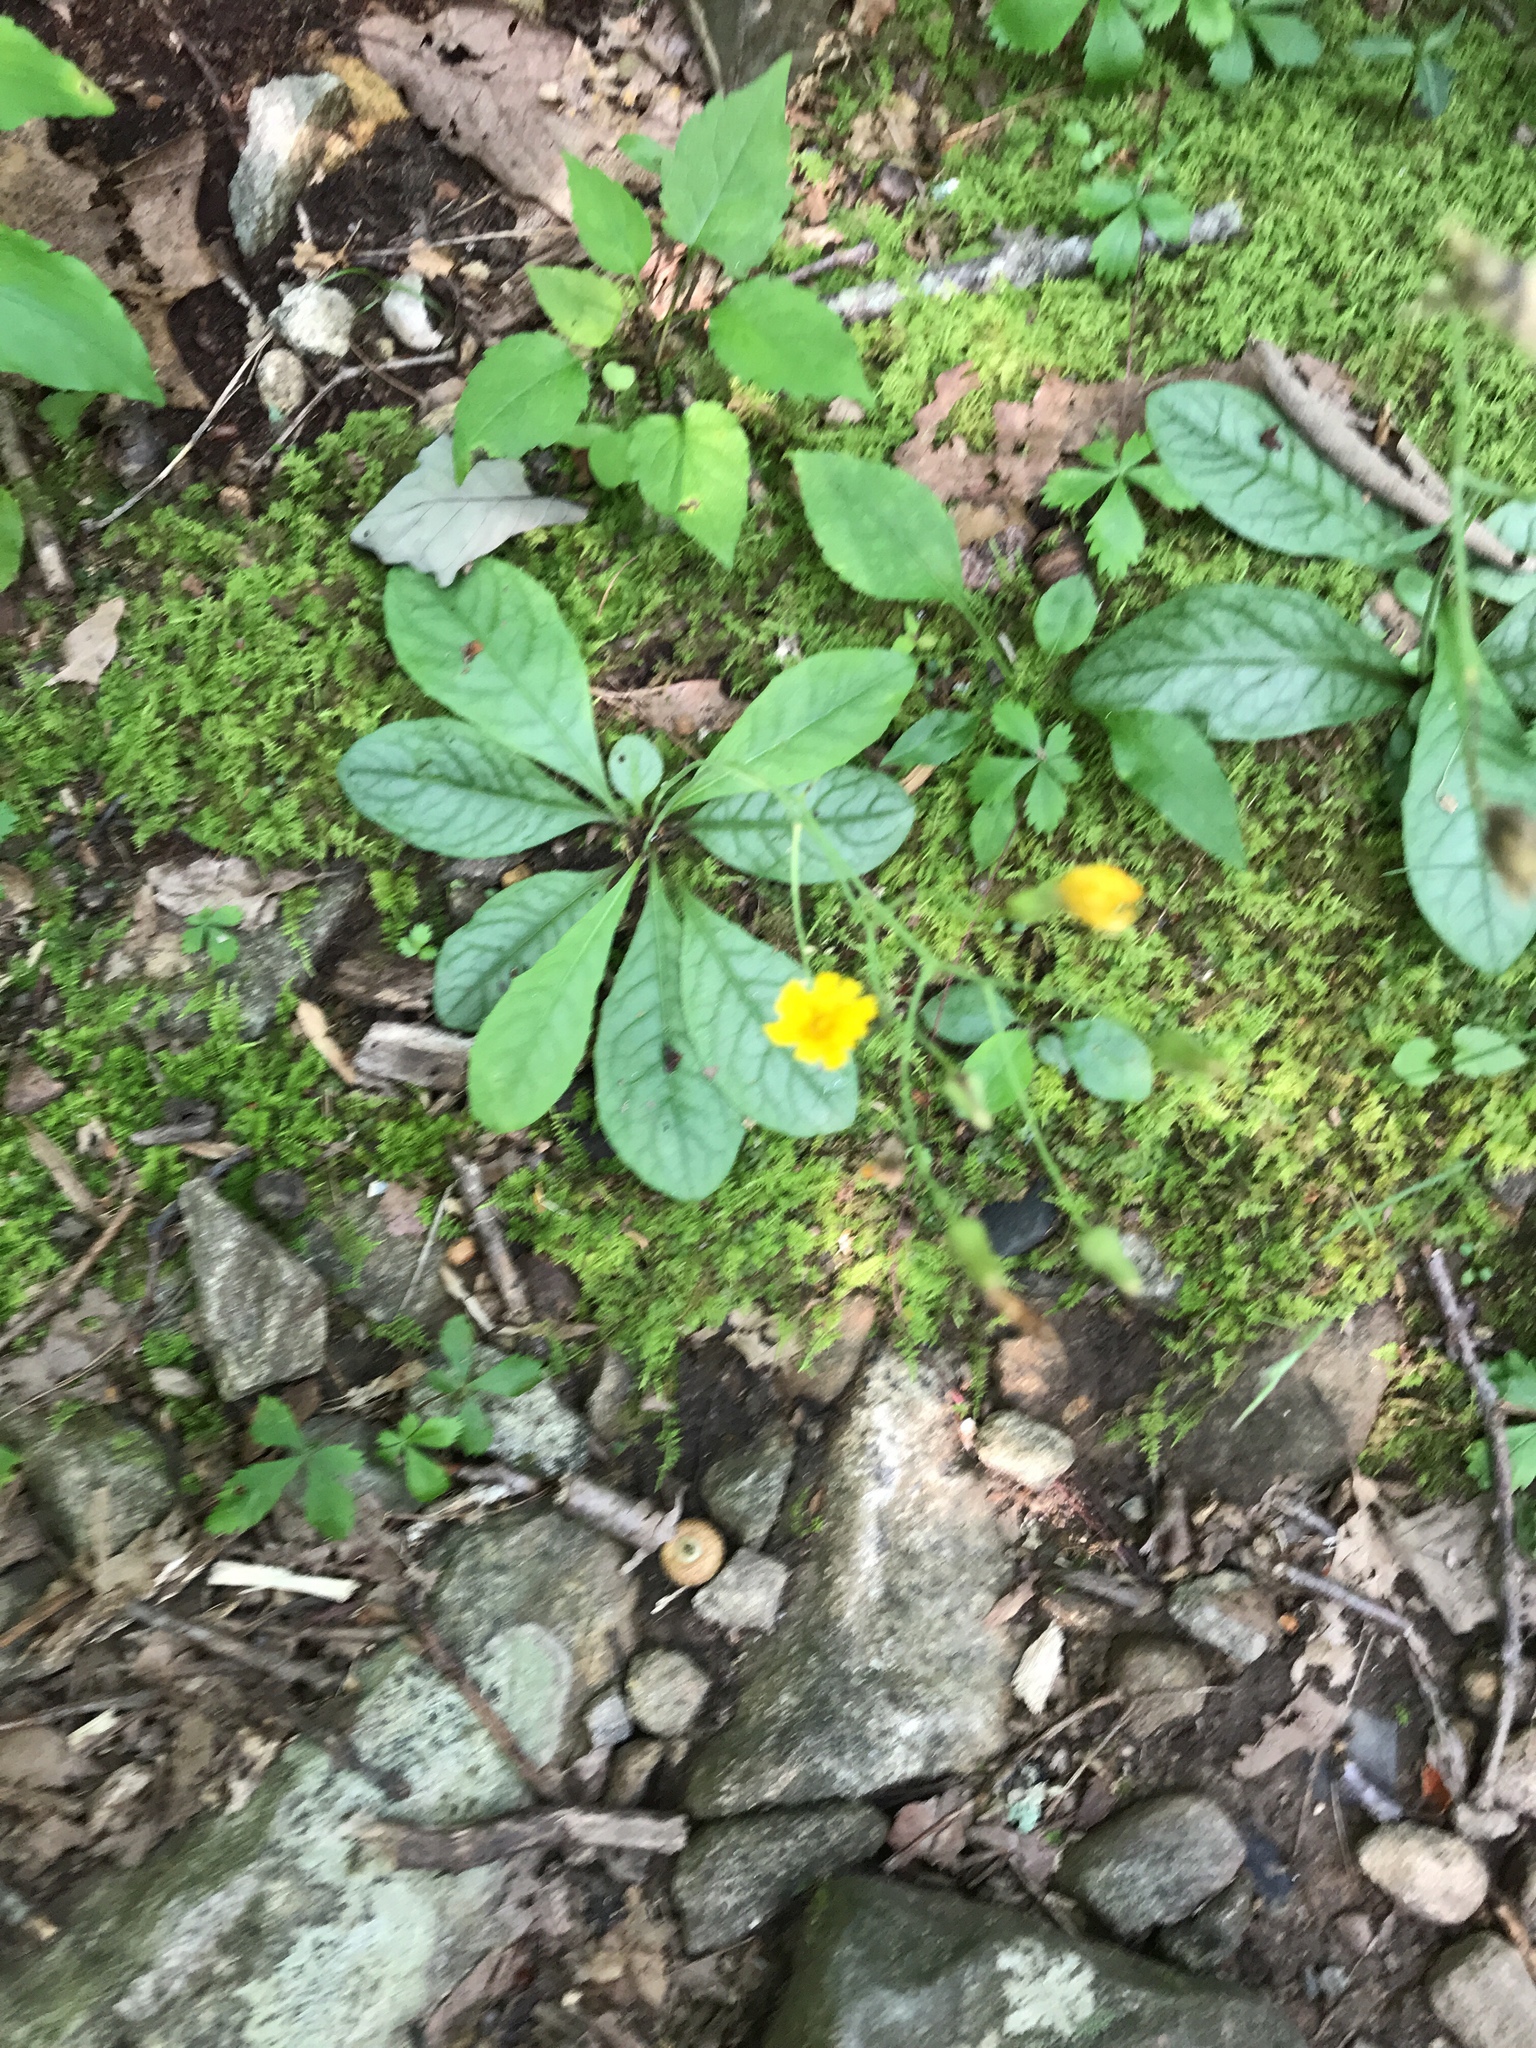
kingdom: Plantae
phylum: Tracheophyta
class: Magnoliopsida
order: Asterales
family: Asteraceae
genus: Hieracium
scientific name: Hieracium venosum
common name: Rattlesnake hawkweed
